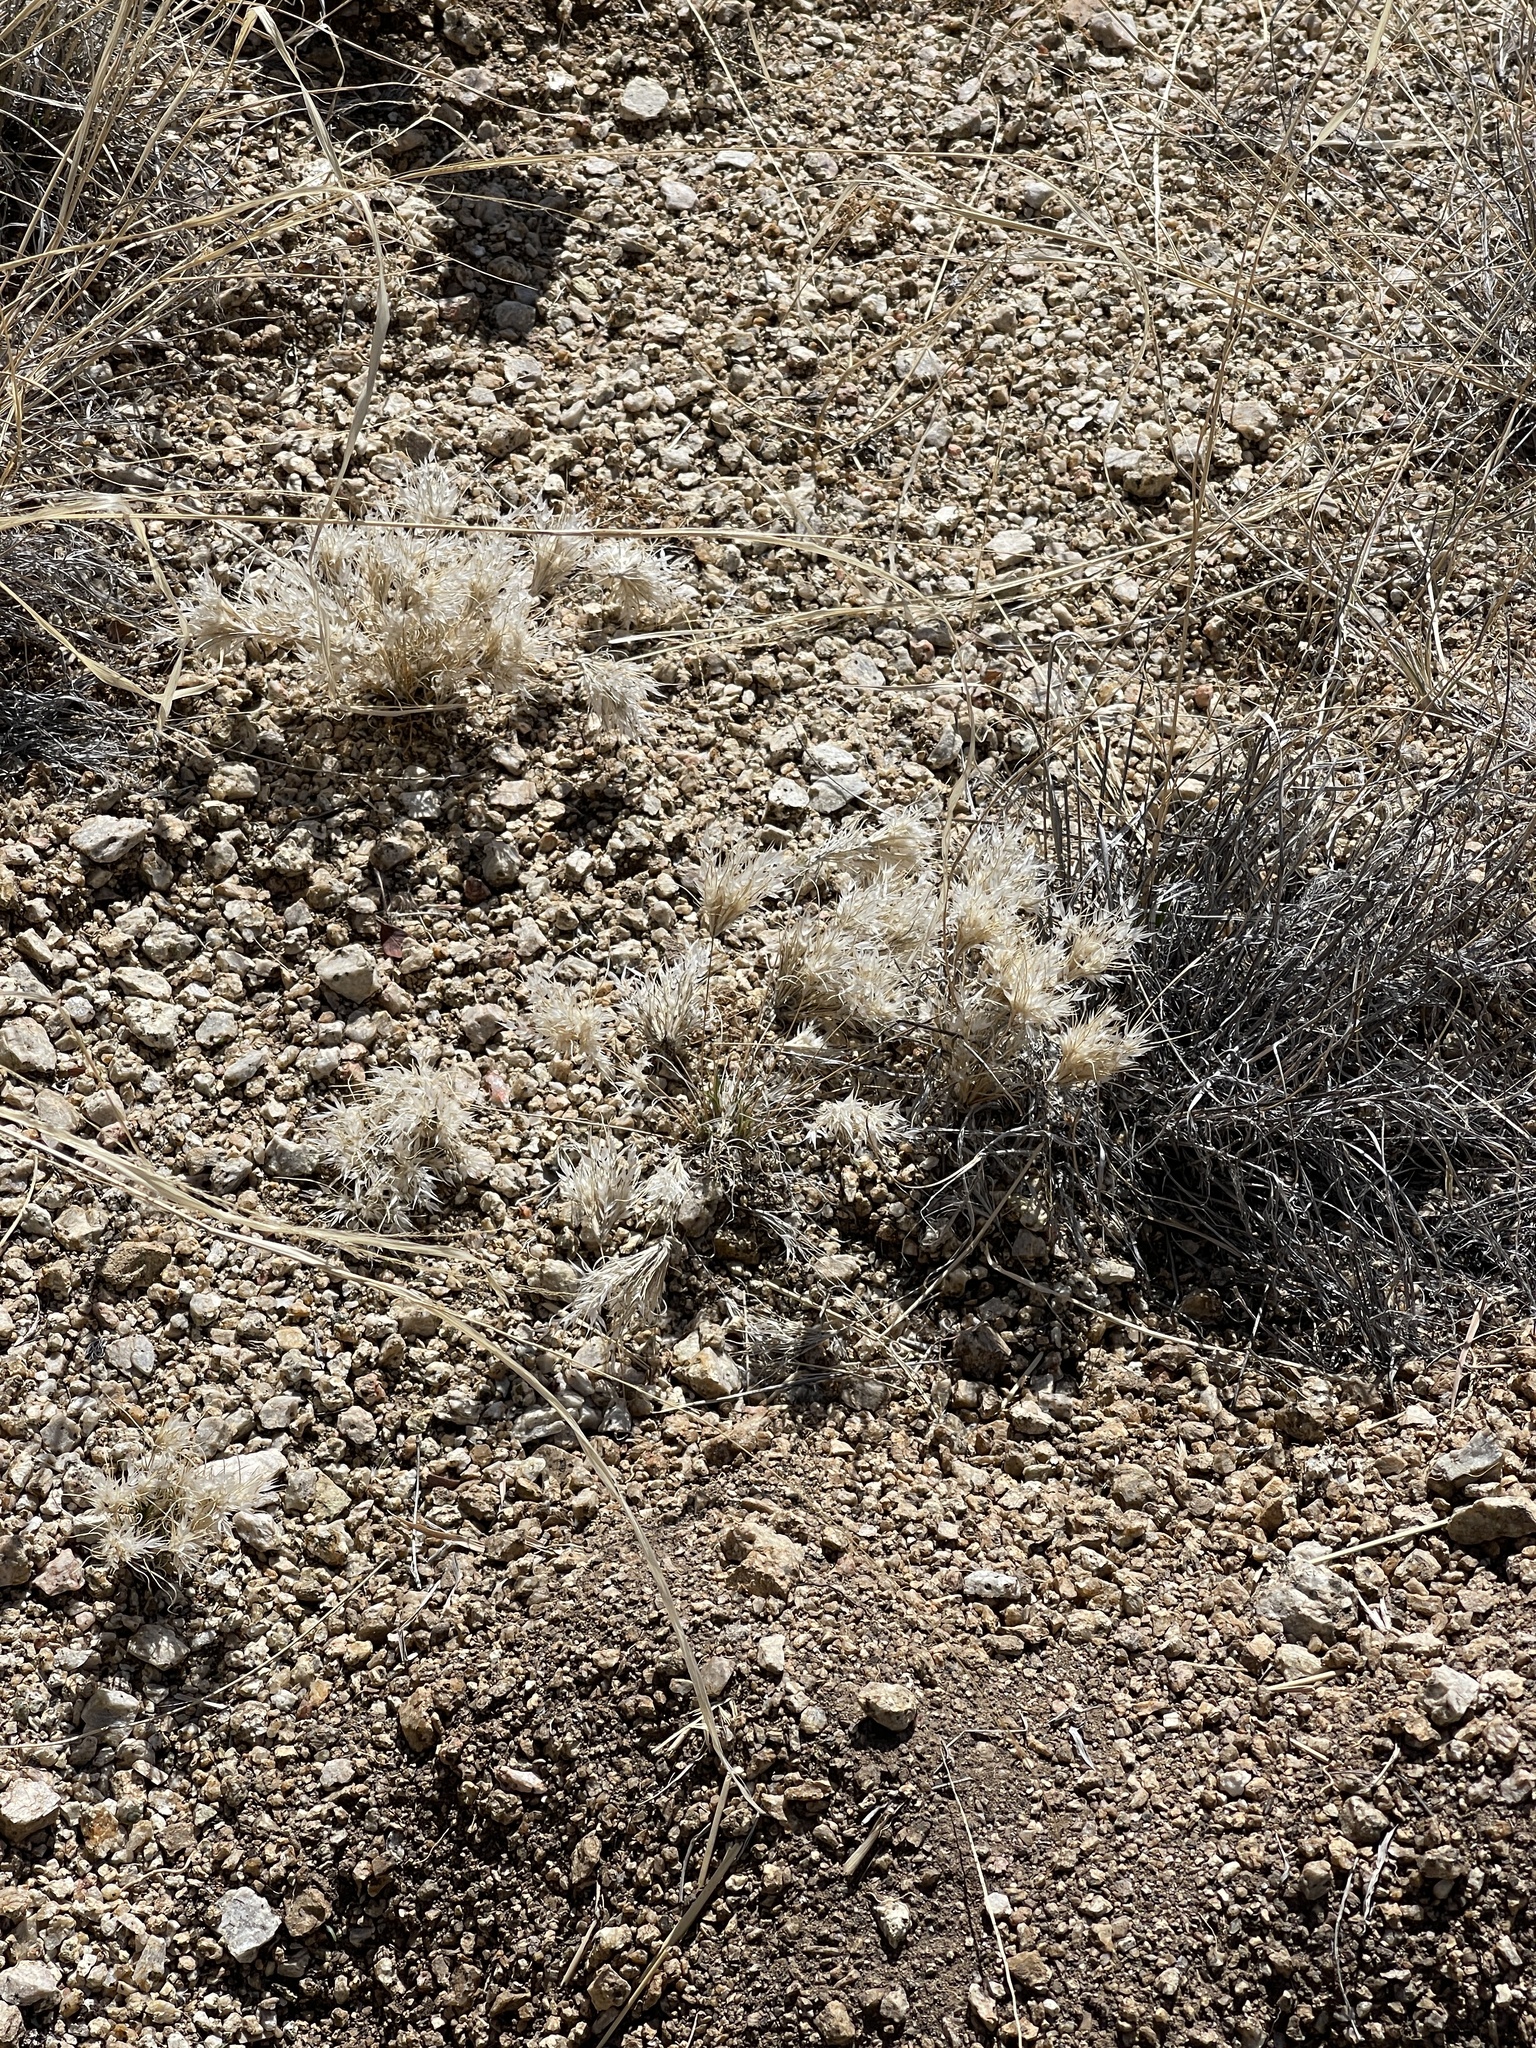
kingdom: Plantae
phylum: Tracheophyta
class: Liliopsida
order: Poales
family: Poaceae
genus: Dasyochloa
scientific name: Dasyochloa pulchella
